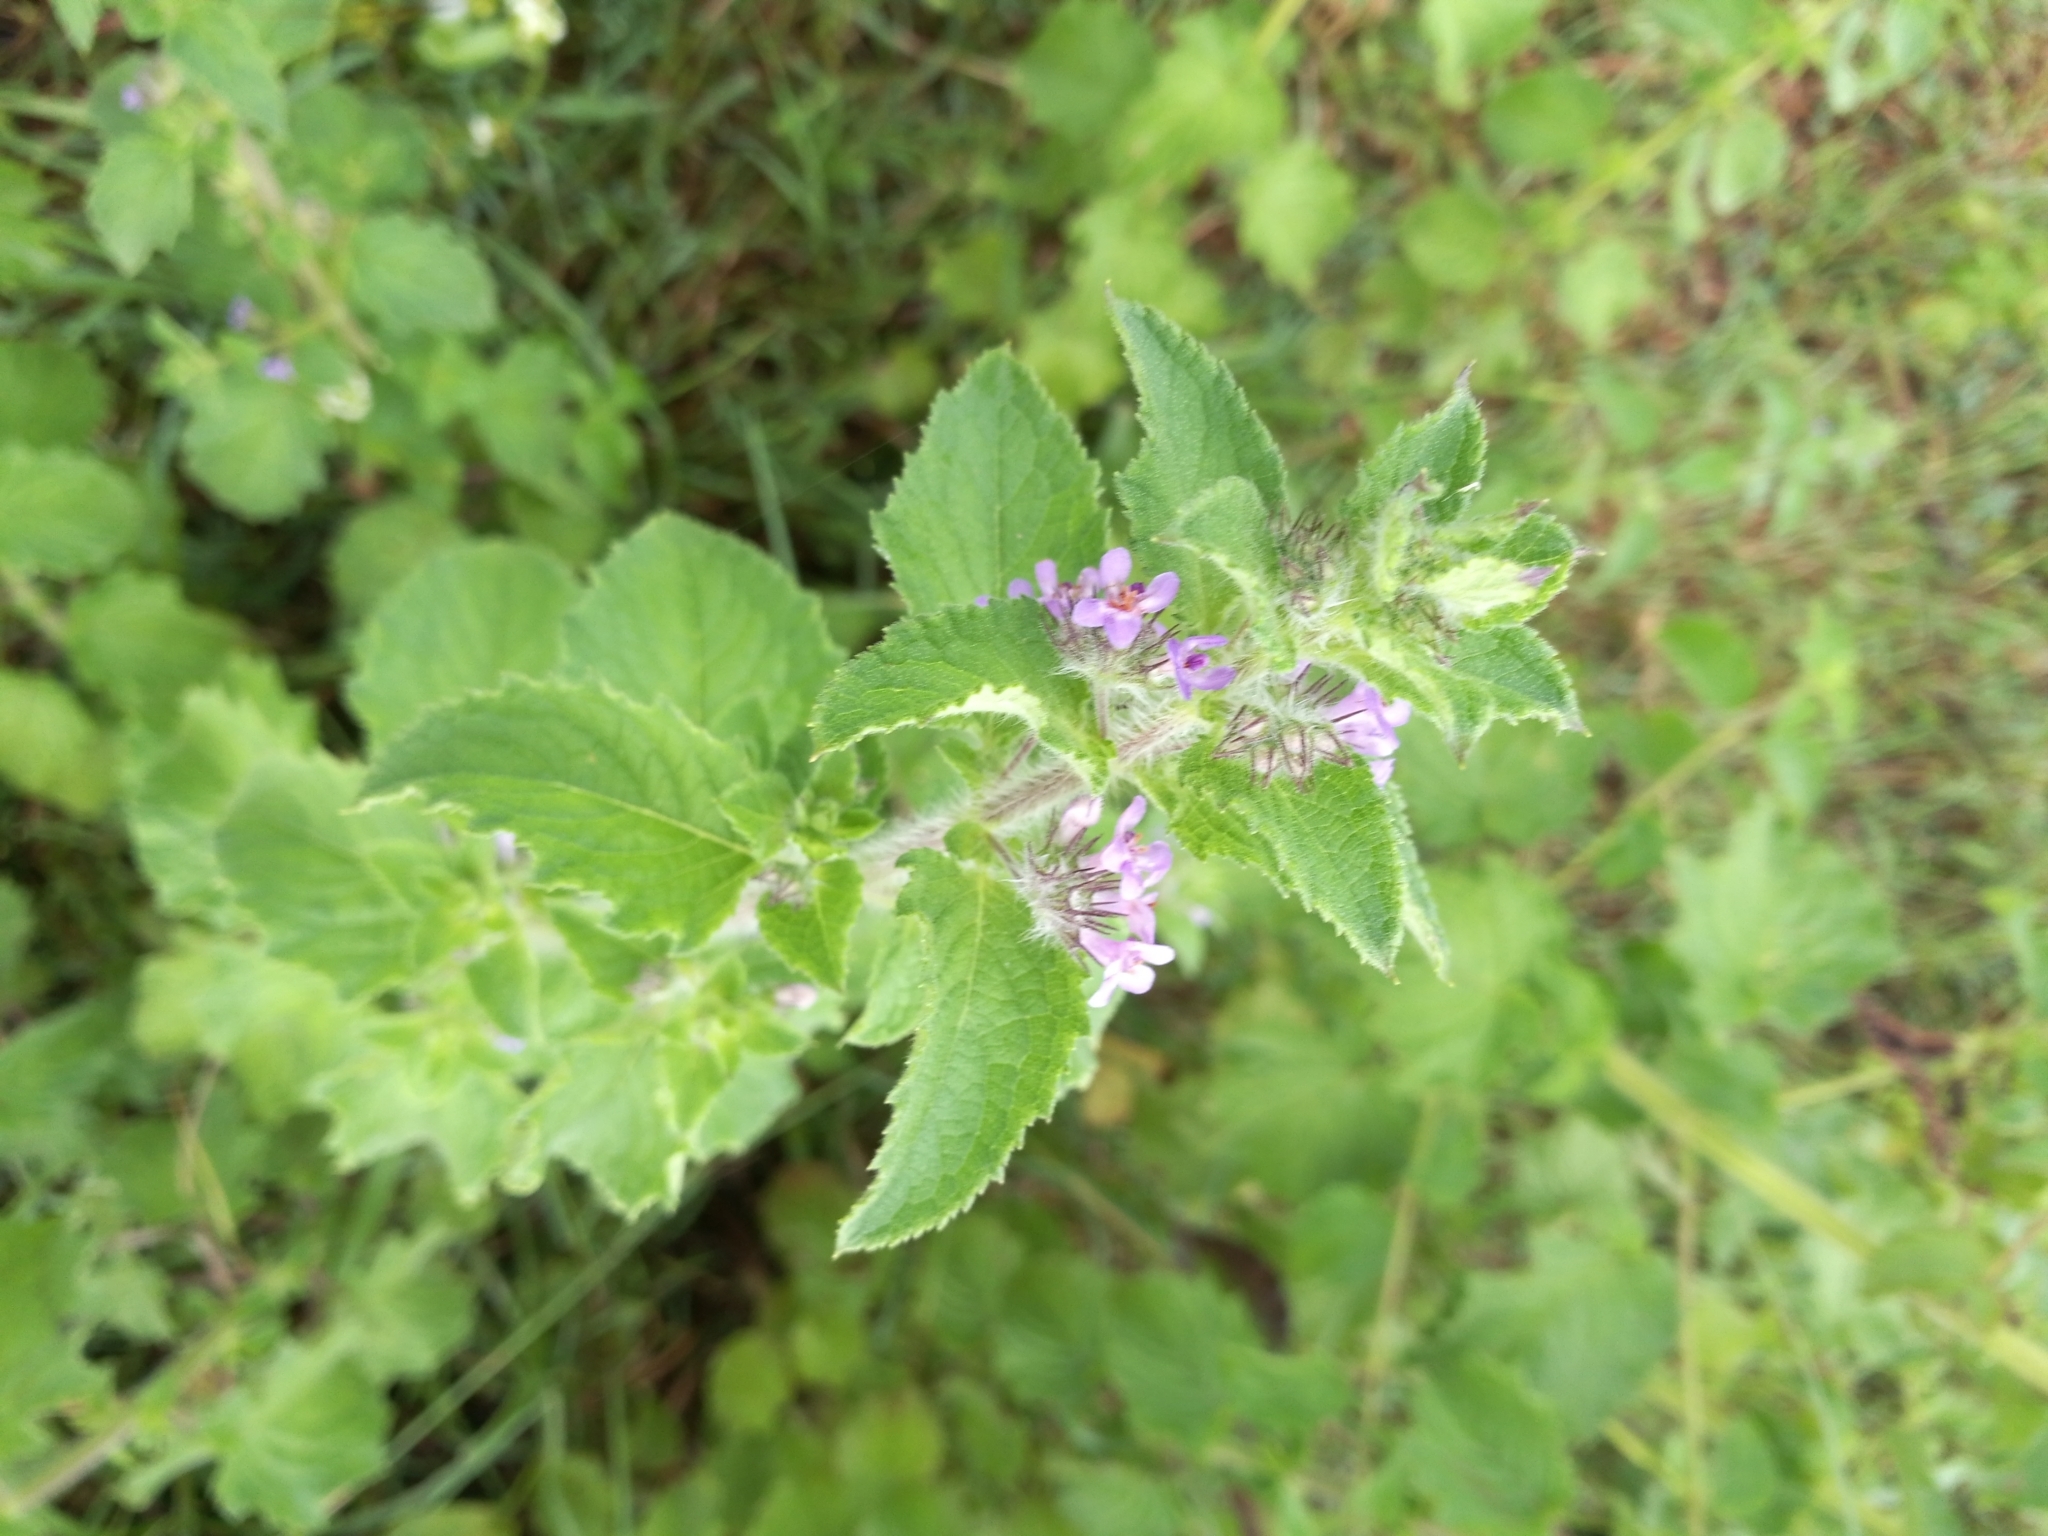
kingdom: Plantae
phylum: Tracheophyta
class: Magnoliopsida
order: Lamiales
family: Lamiaceae
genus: Mesosphaerum
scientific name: Mesosphaerum suaveolens
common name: Pignut
